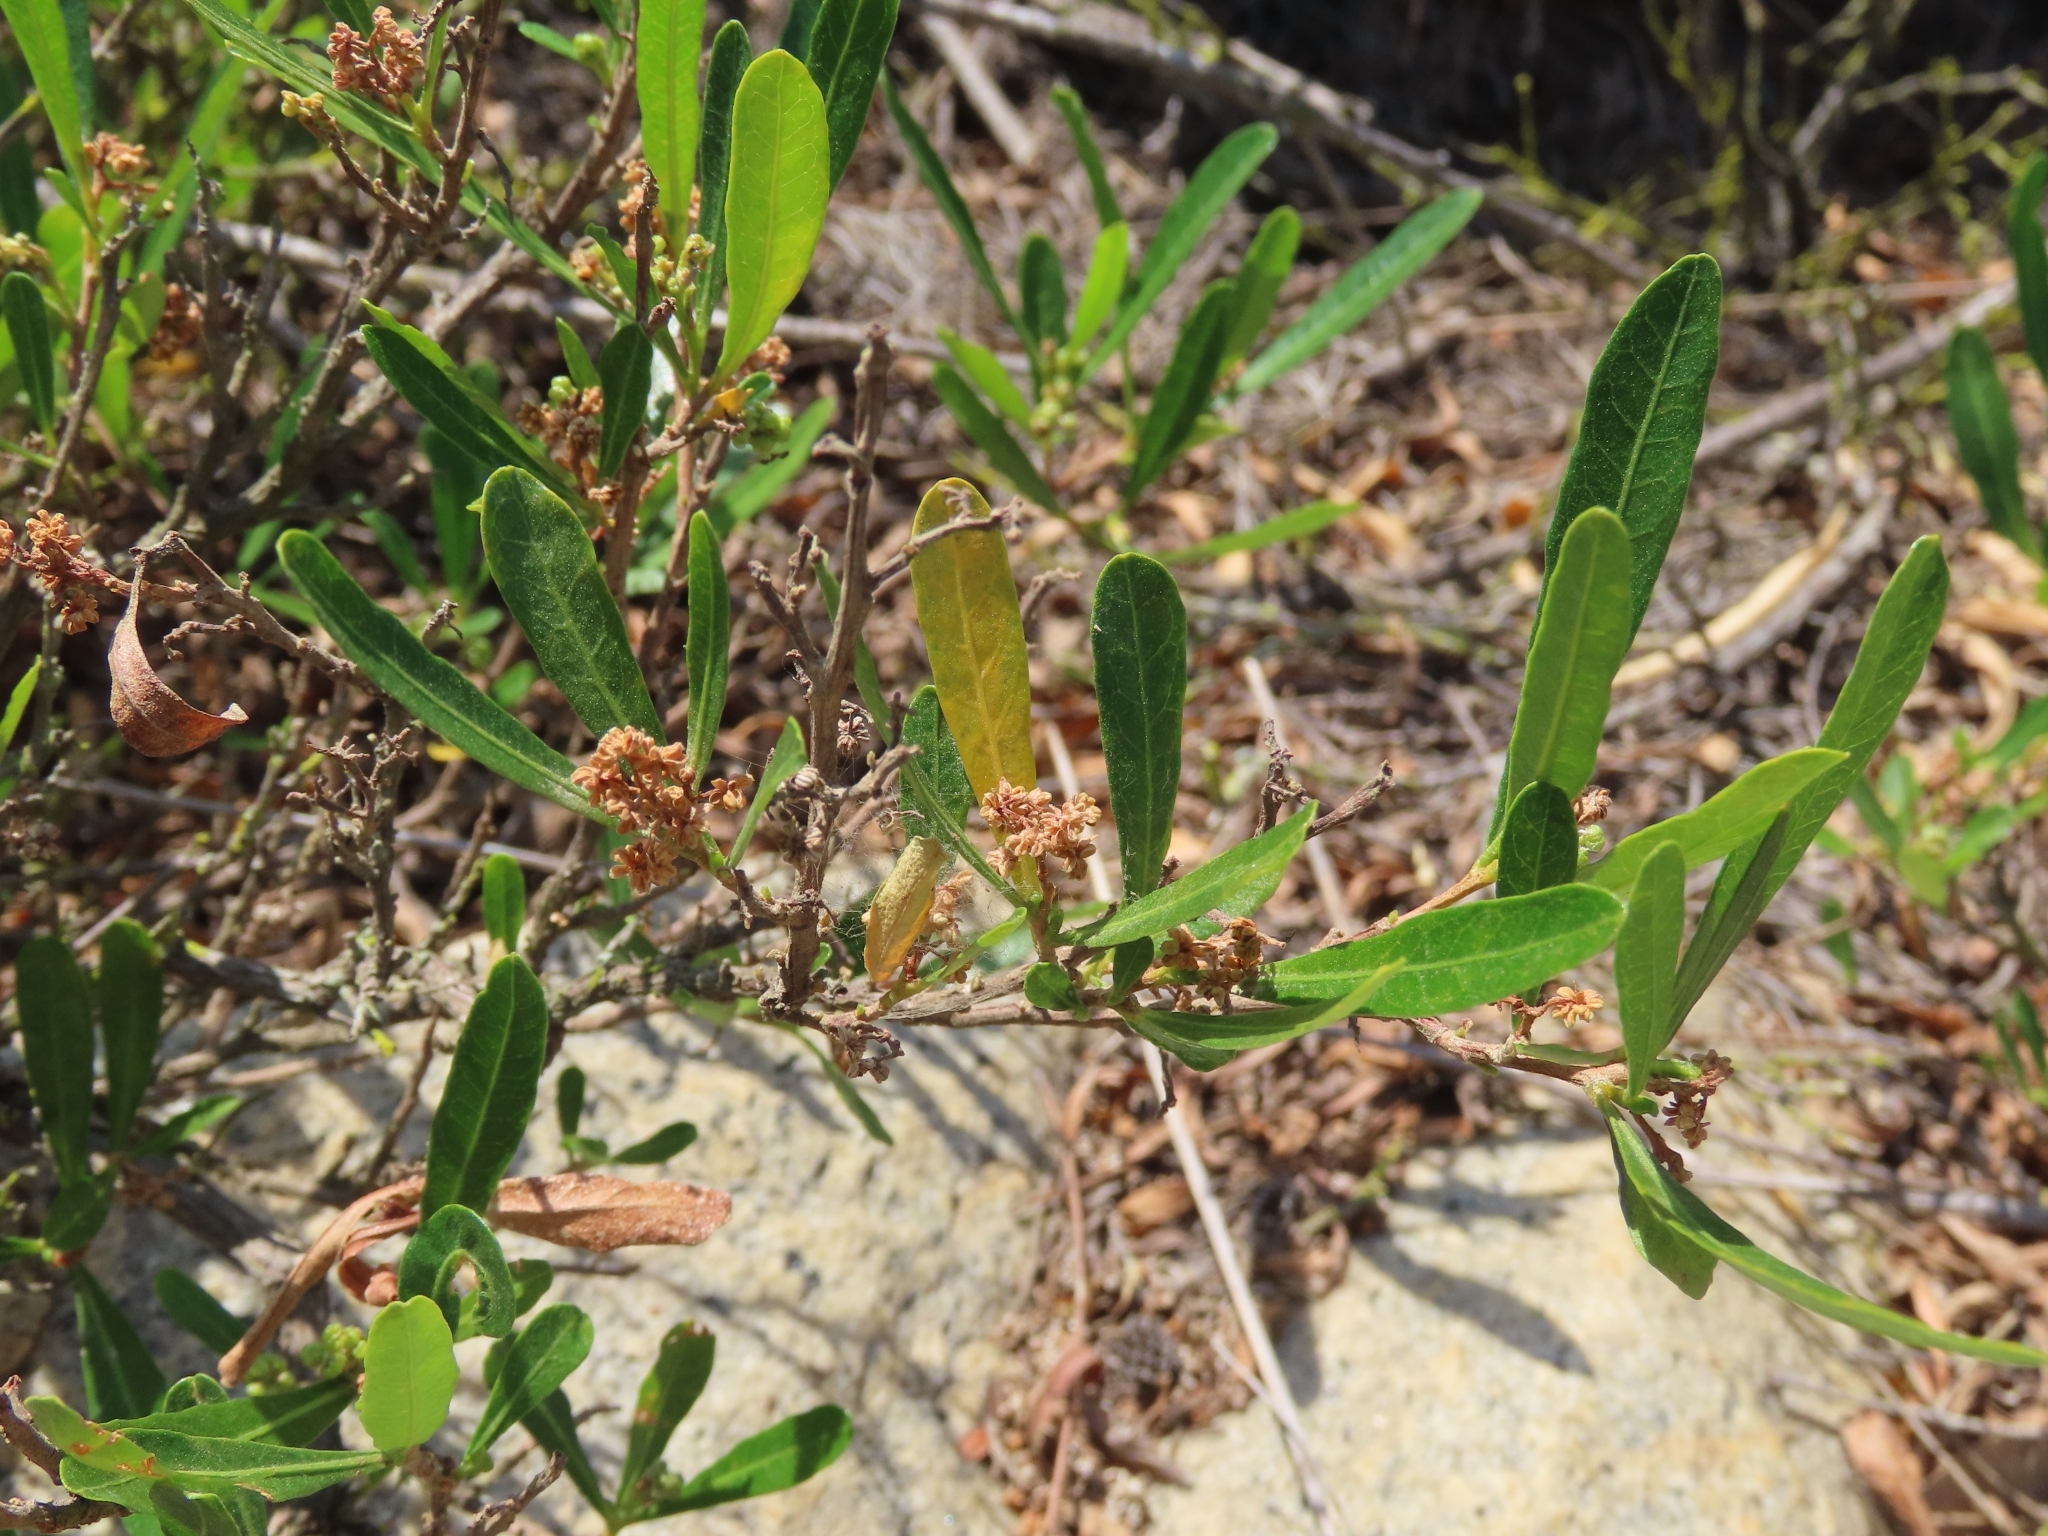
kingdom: Plantae
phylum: Tracheophyta
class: Magnoliopsida
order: Sapindales
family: Sapindaceae
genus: Dodonaea
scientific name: Dodonaea viscosa
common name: Hopbush
